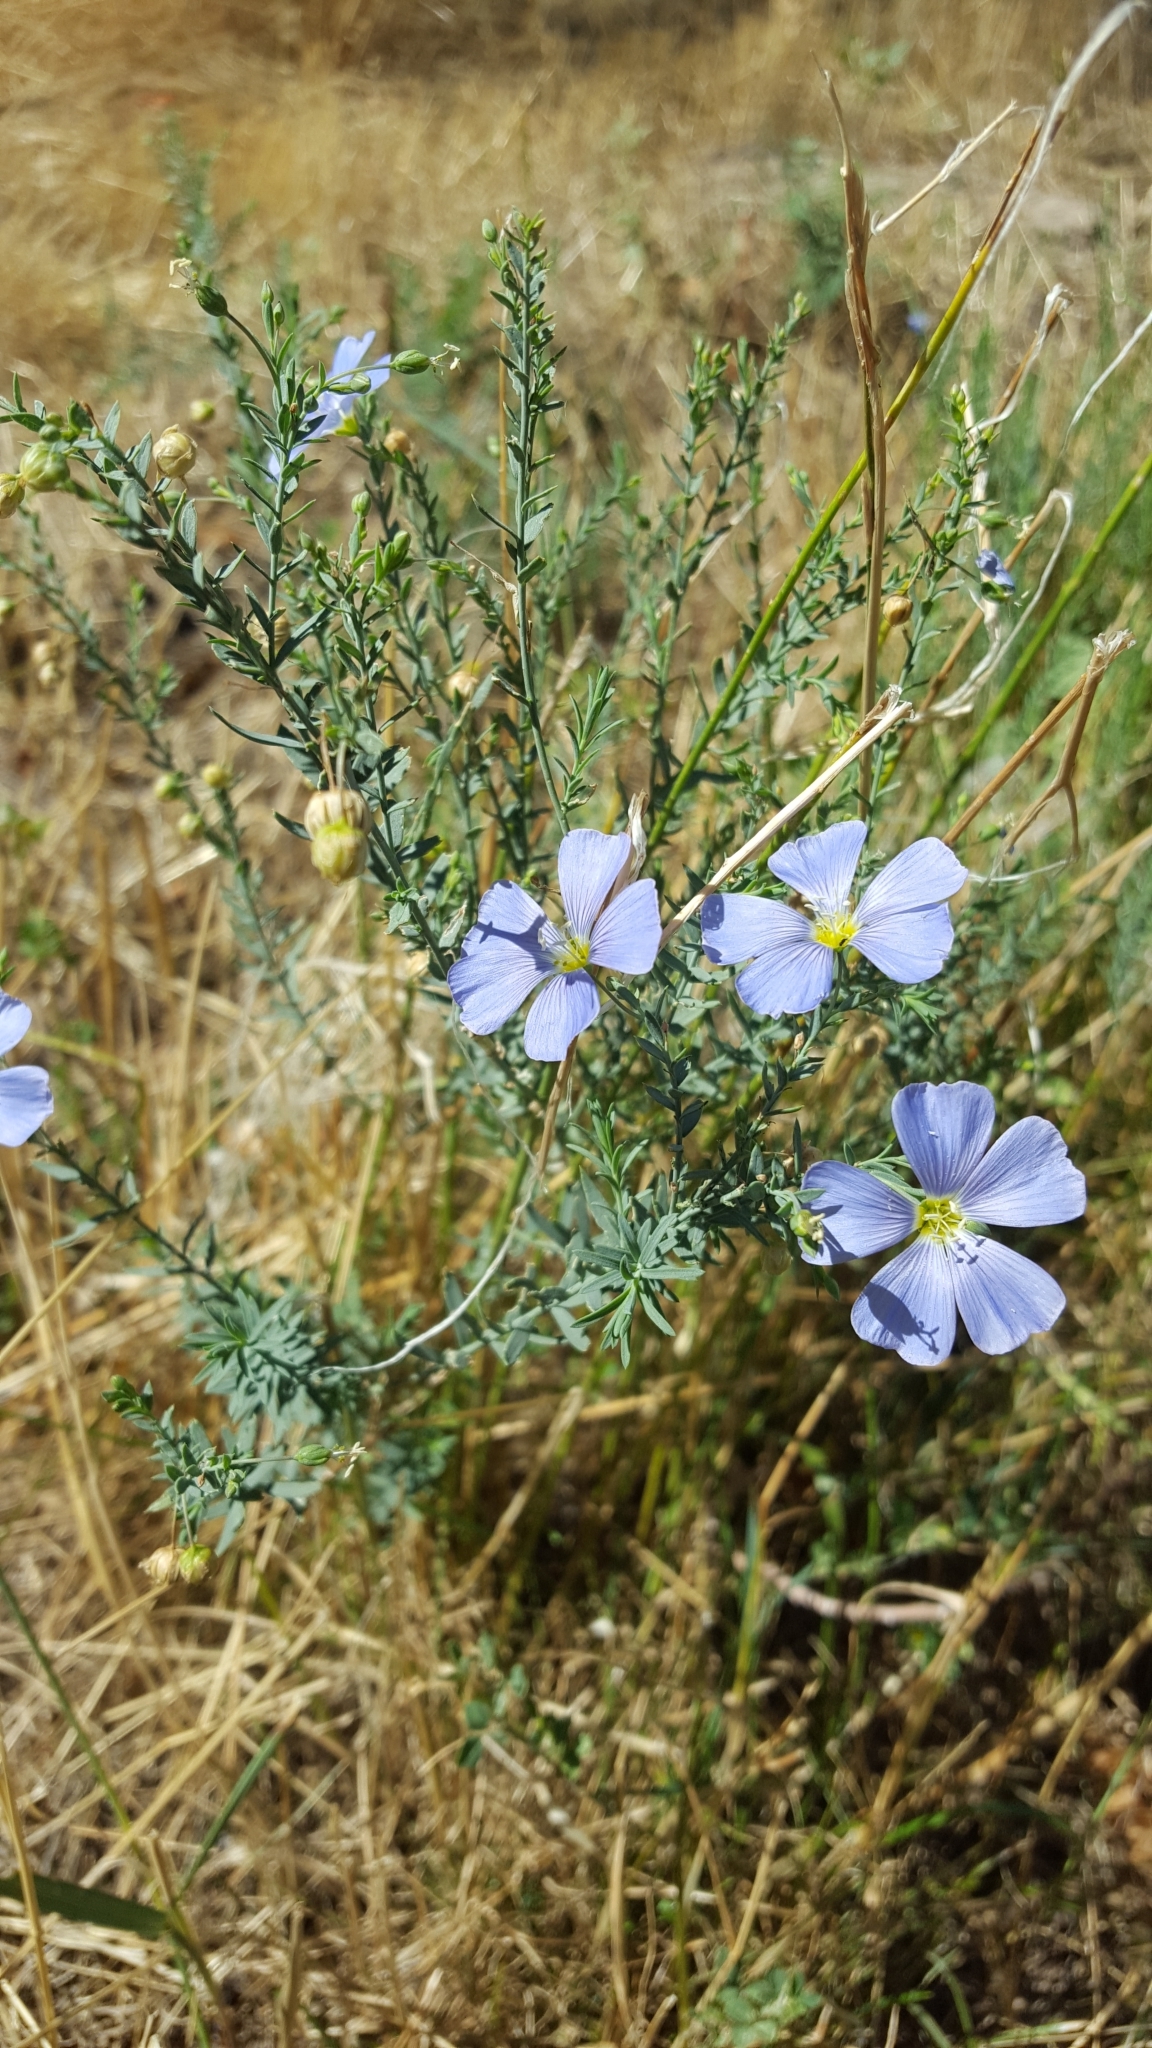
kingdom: Plantae
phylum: Tracheophyta
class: Magnoliopsida
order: Malpighiales
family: Linaceae
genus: Linum
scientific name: Linum lewisii
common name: Prairie flax
